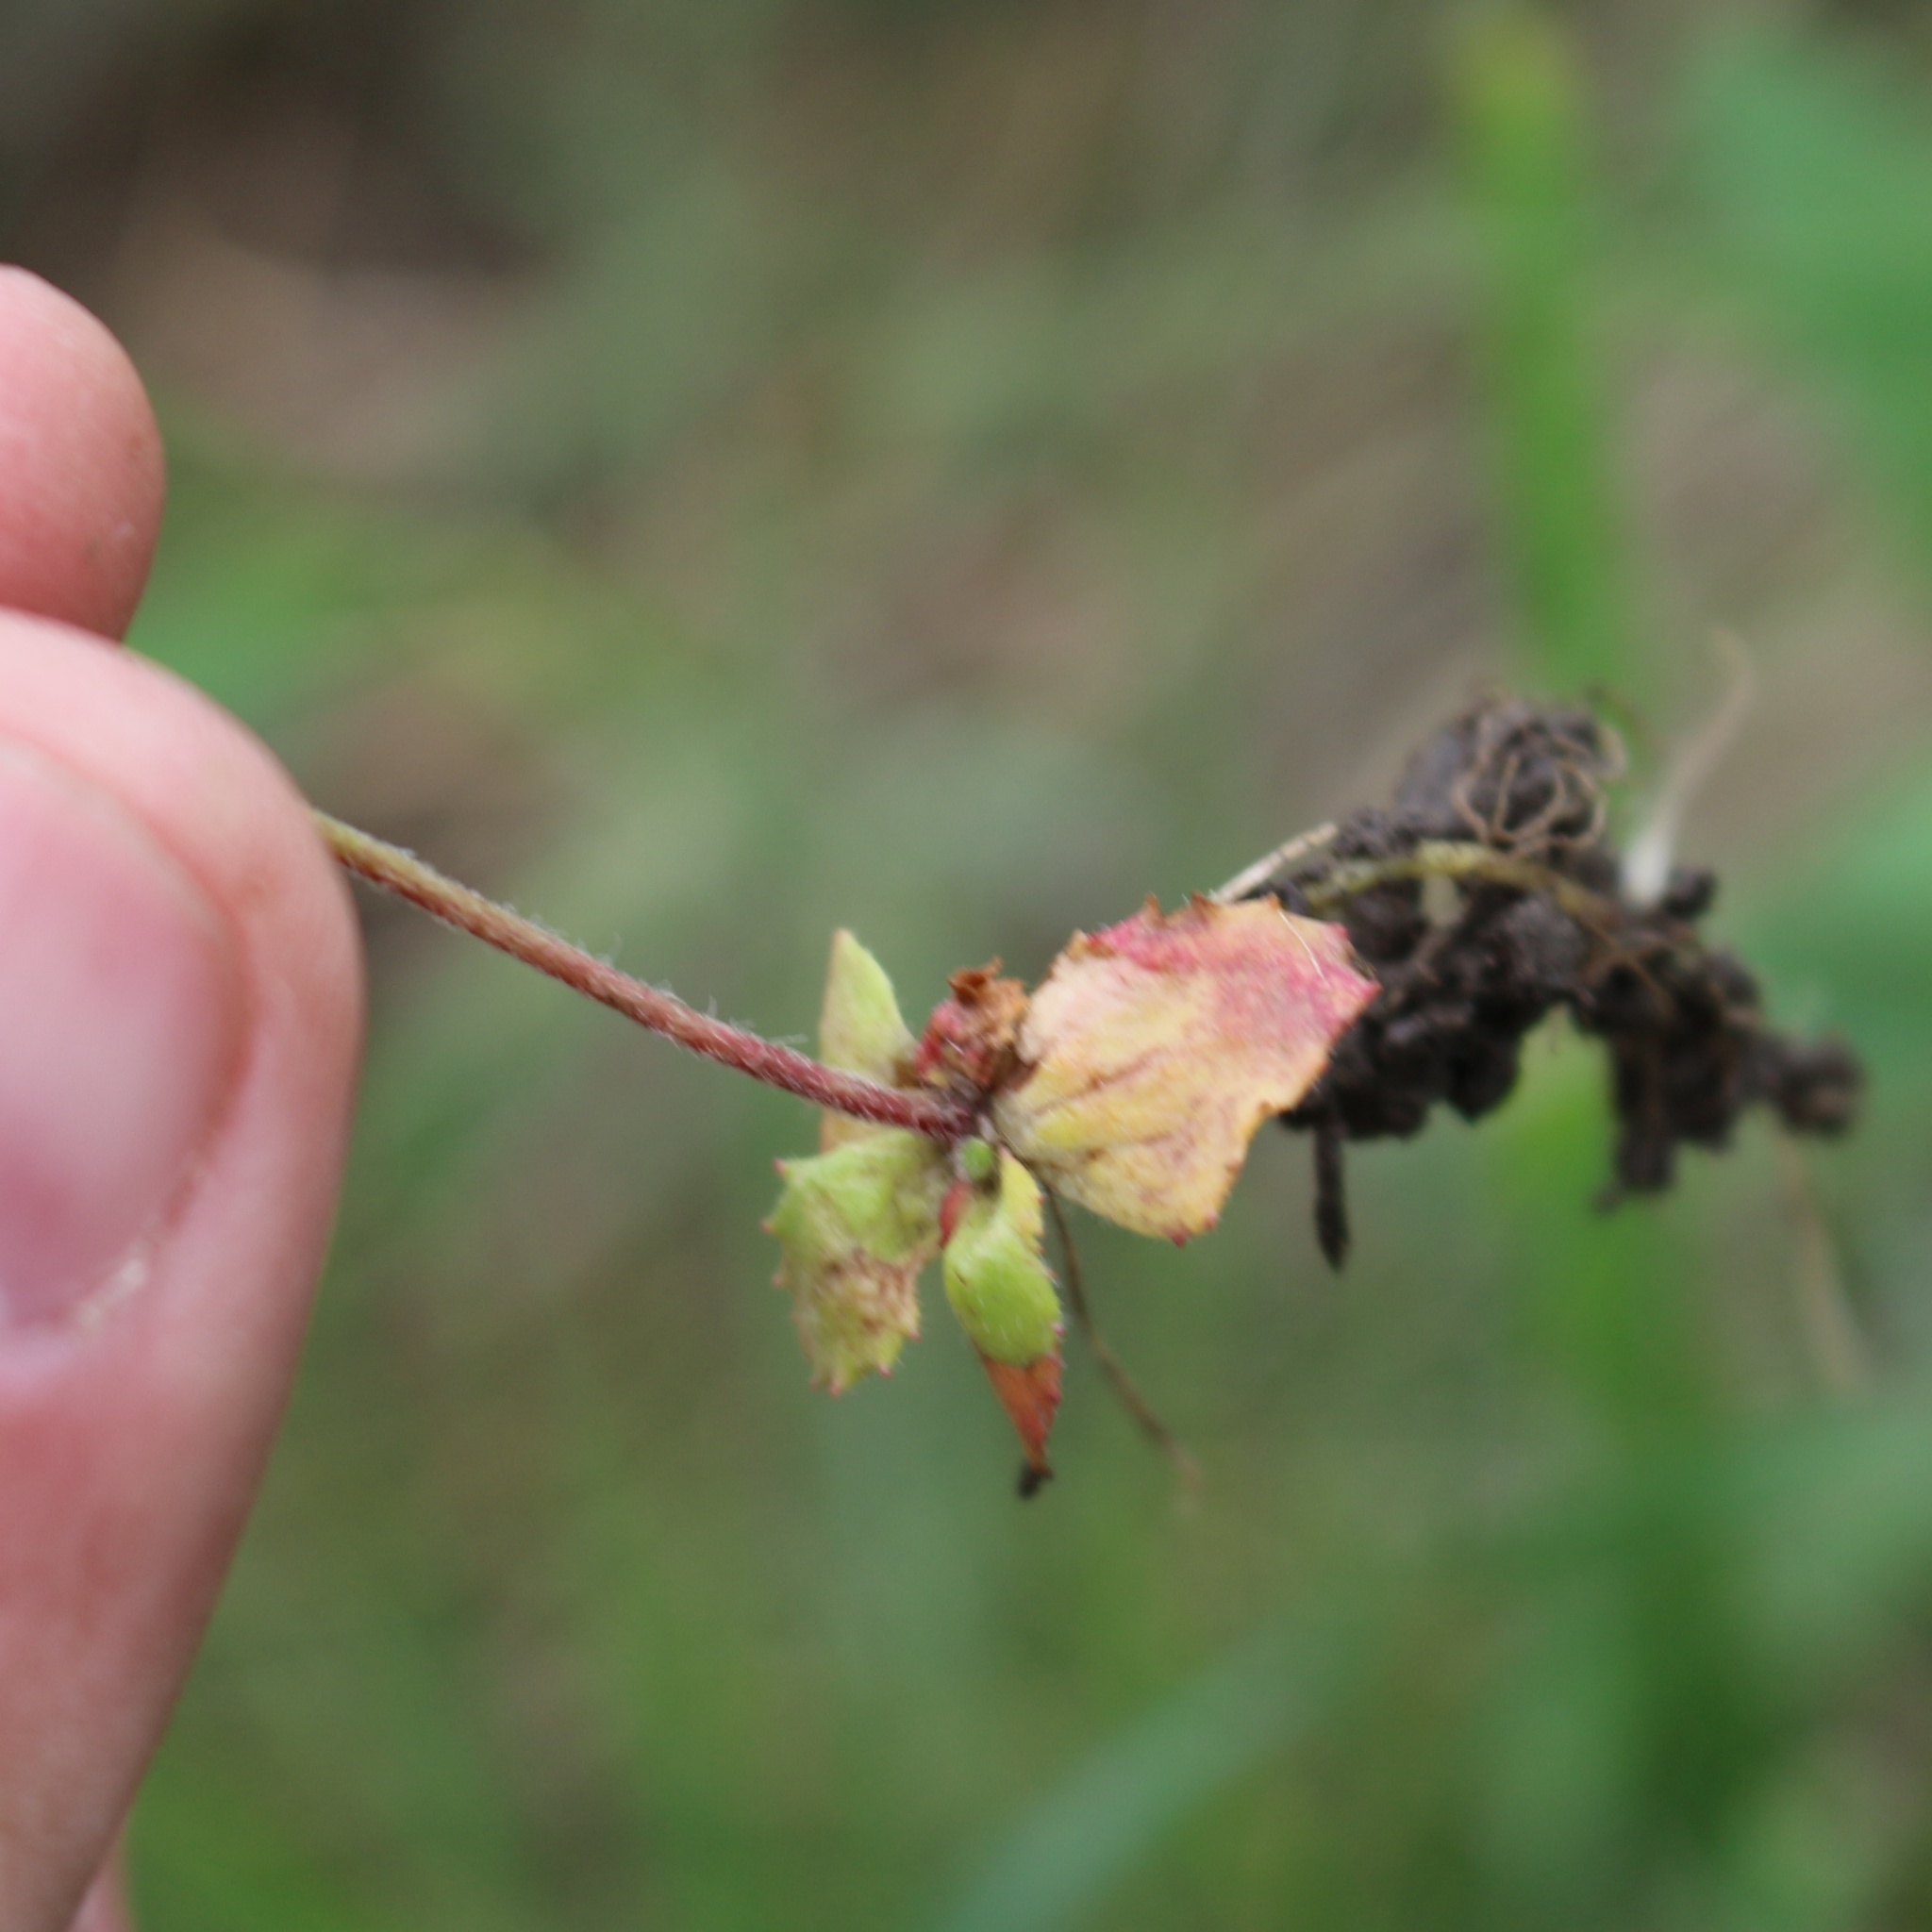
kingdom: Plantae
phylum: Tracheophyta
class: Magnoliopsida
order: Ericales
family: Primulaceae
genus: Androsace
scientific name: Androsace maxima
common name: Annual androsace
